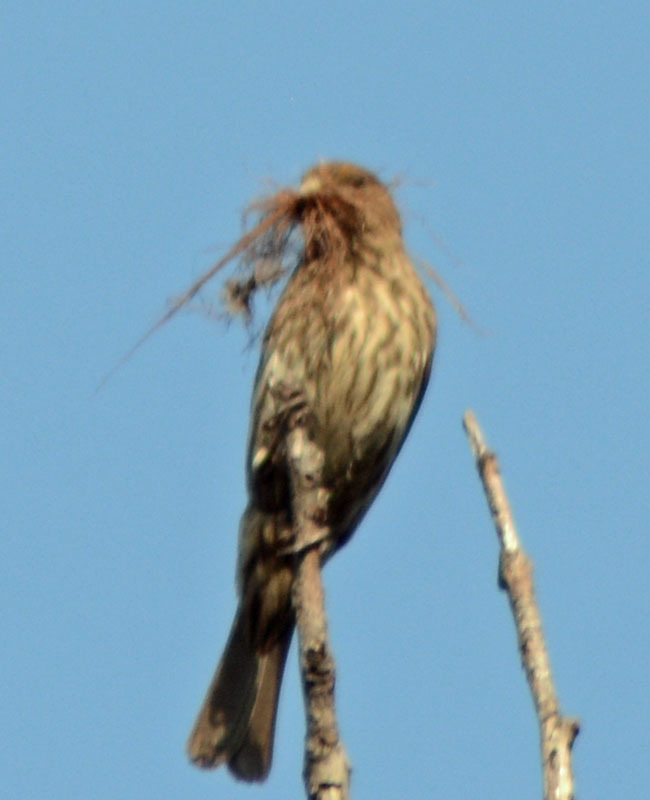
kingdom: Animalia
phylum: Chordata
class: Aves
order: Passeriformes
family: Fringillidae
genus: Haemorhous
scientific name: Haemorhous mexicanus
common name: House finch
